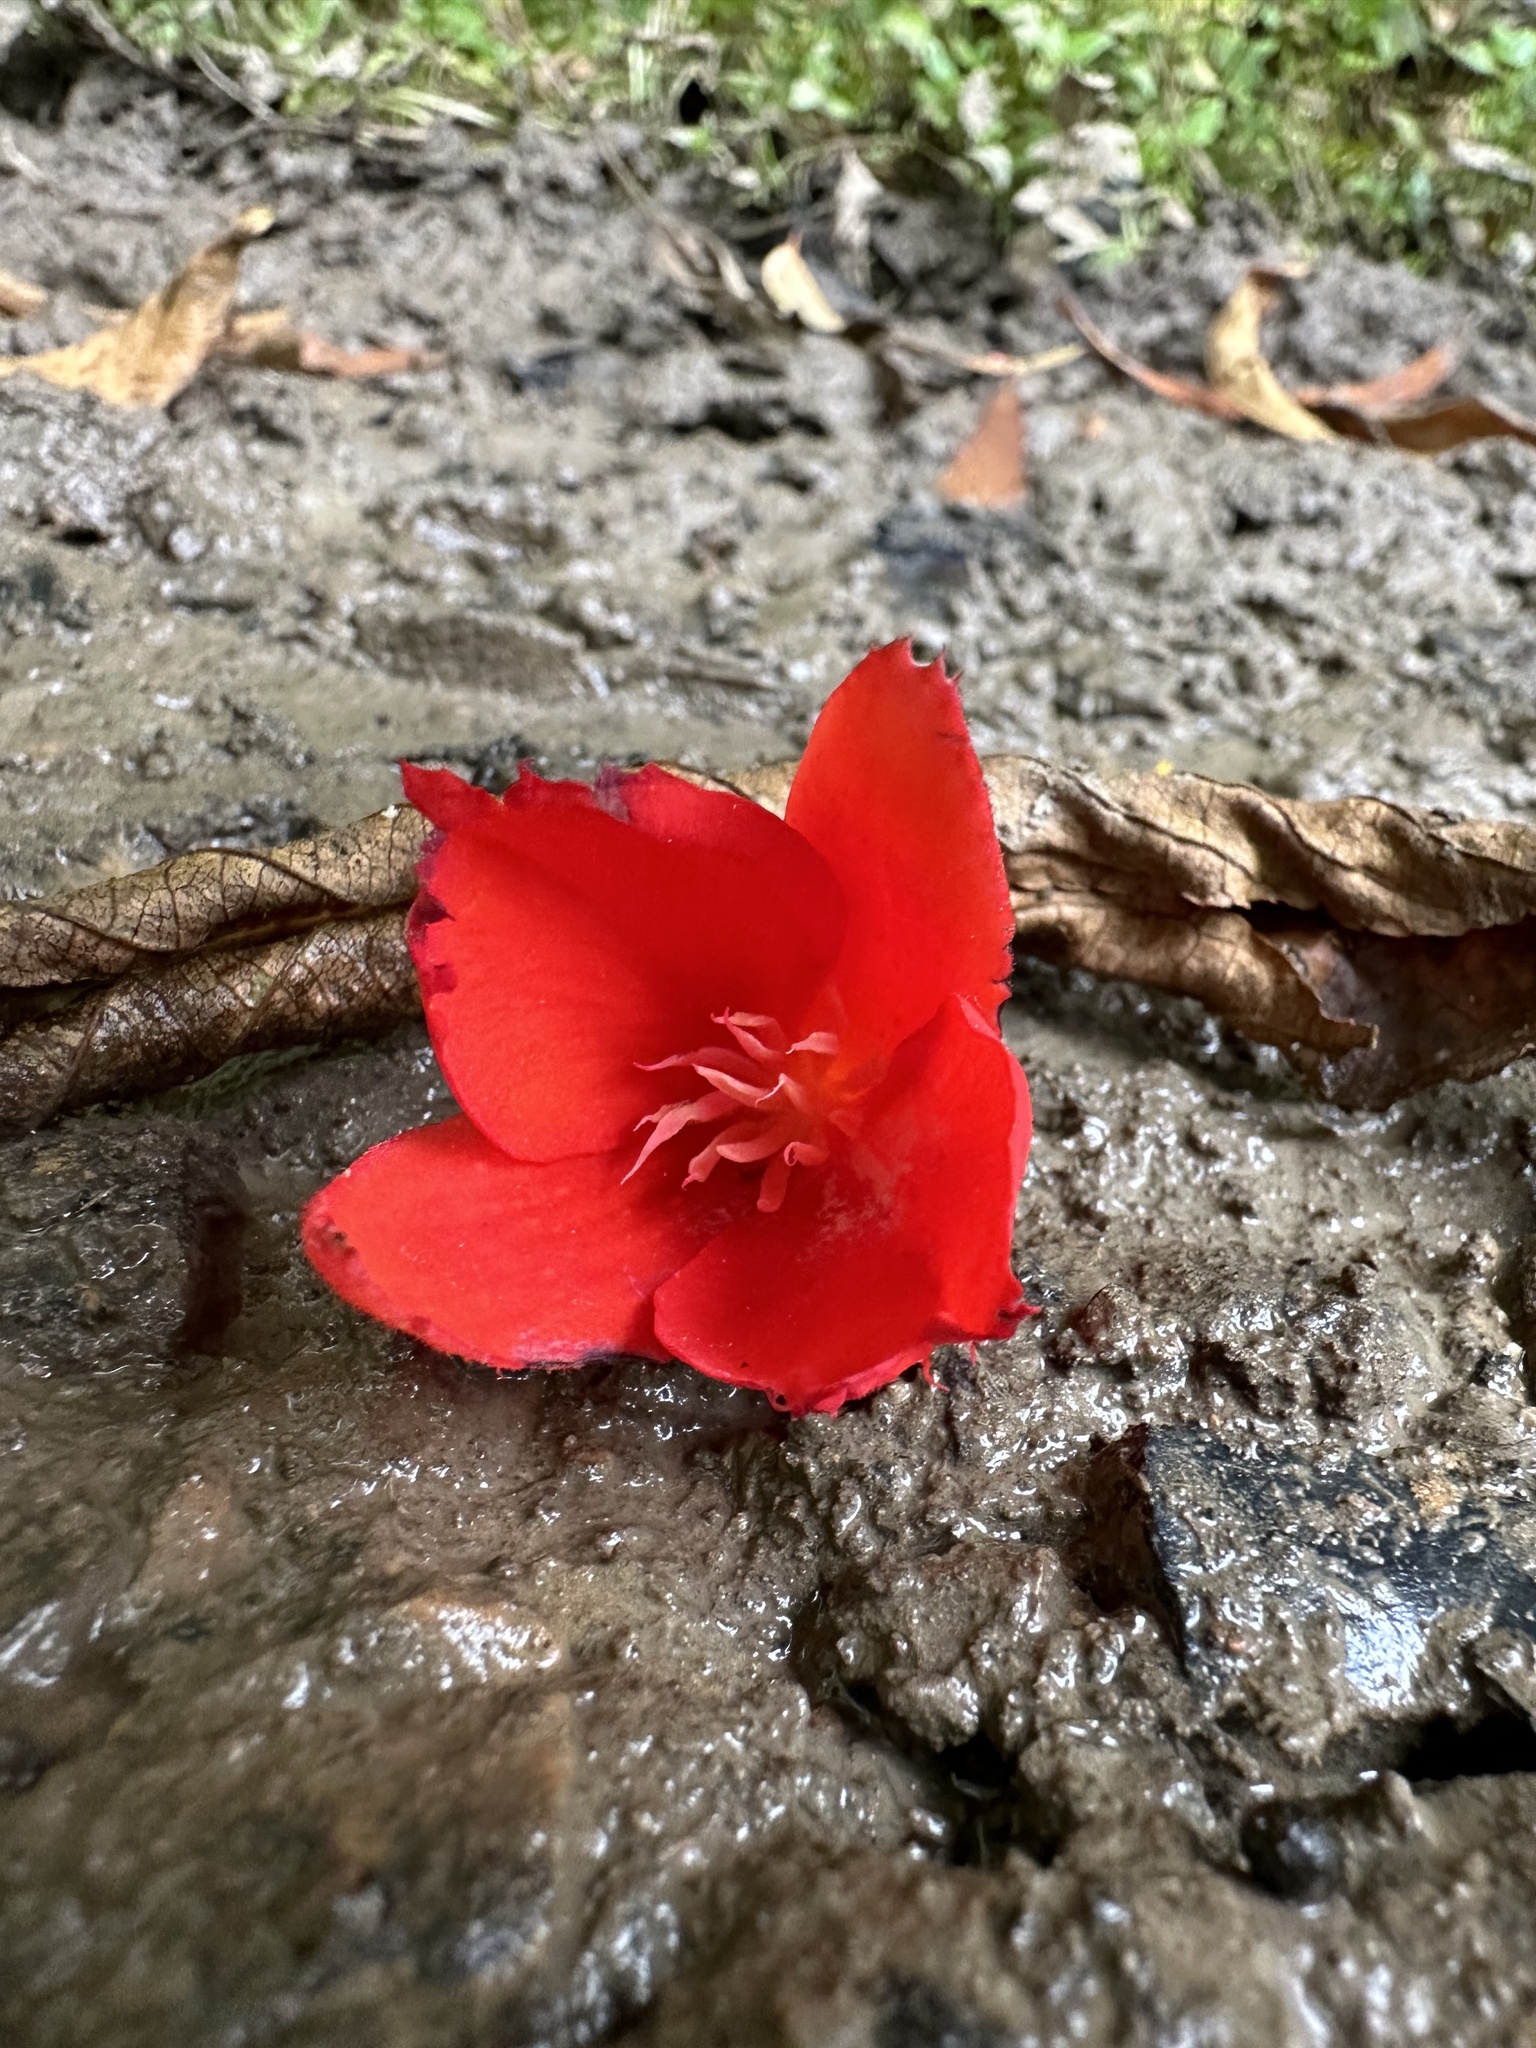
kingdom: Plantae
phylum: Tracheophyta
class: Magnoliopsida
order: Cucurbitales
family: Begoniaceae
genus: Begonia
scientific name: Begonia ferruginea
